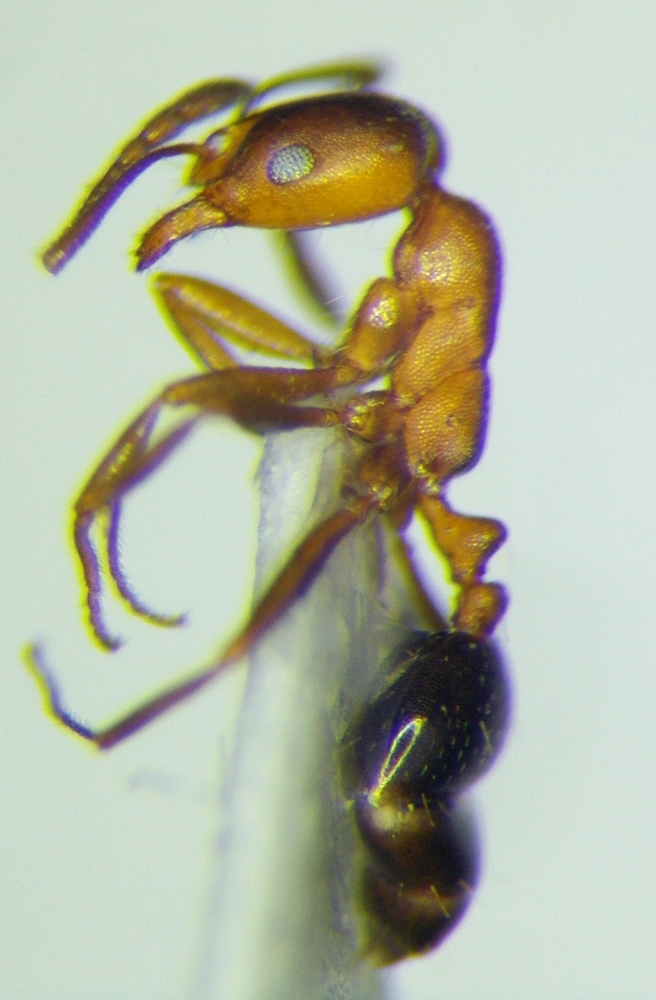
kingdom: Animalia
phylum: Arthropoda
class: Insecta
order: Hymenoptera
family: Formicidae
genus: Monomorium
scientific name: Monomorium bicolor
